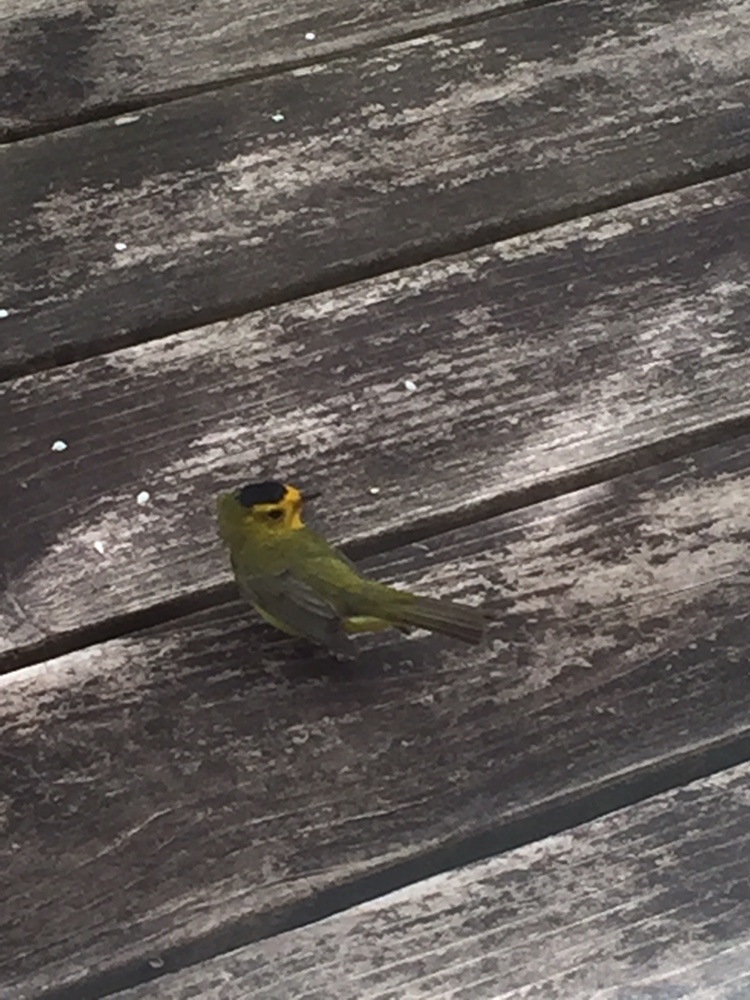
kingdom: Animalia
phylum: Chordata
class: Aves
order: Passeriformes
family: Parulidae
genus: Cardellina
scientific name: Cardellina pusilla
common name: Wilson's warbler
